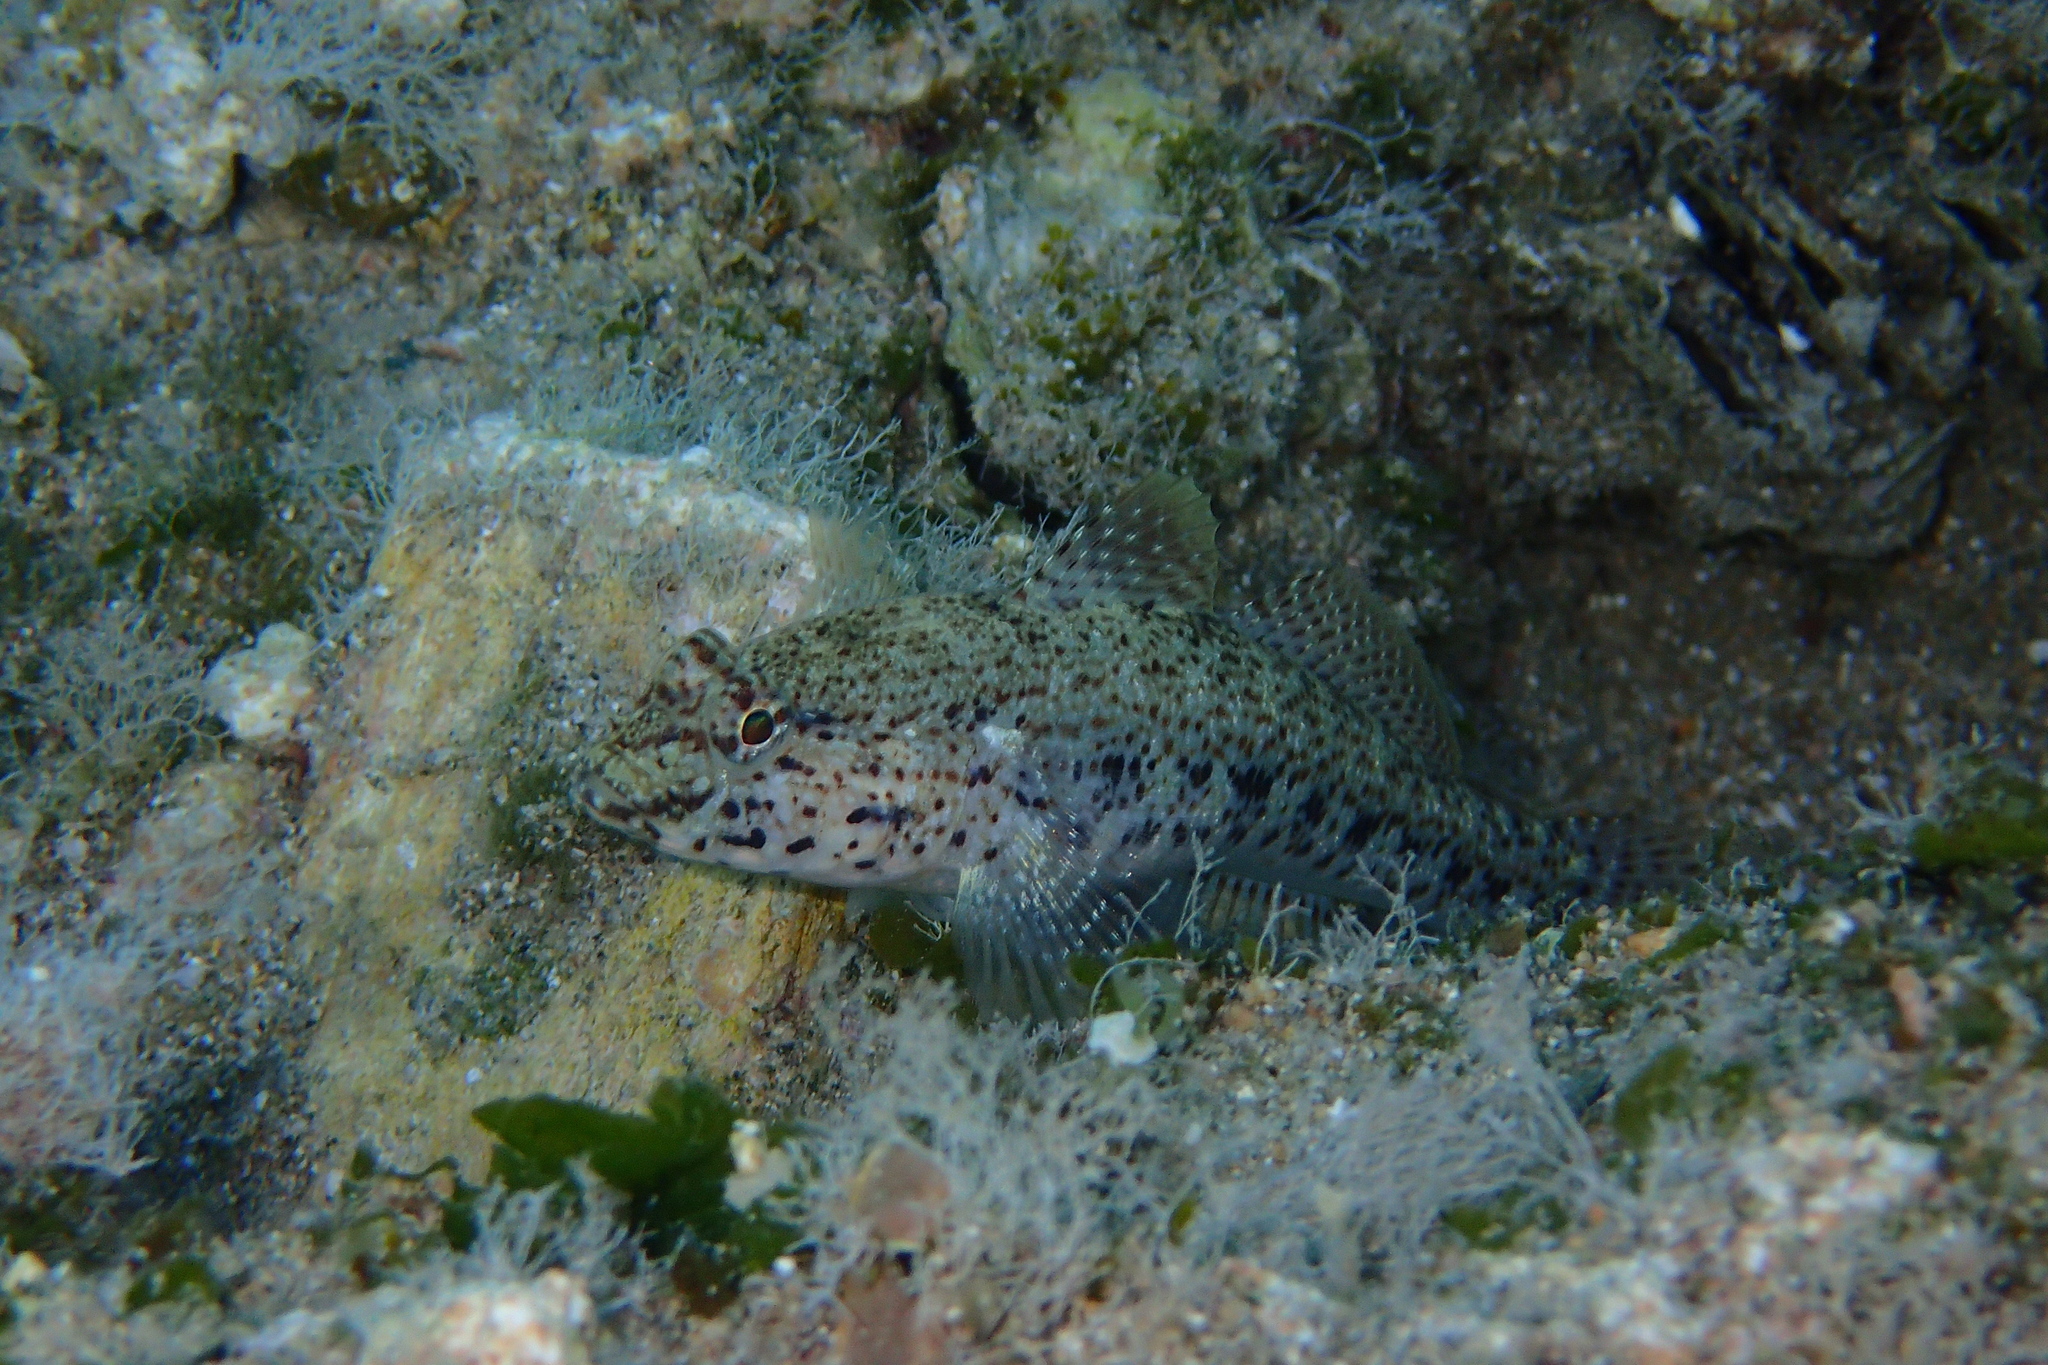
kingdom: Animalia
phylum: Chordata
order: Perciformes
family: Gobiidae
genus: Gobius
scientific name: Gobius incognitus
